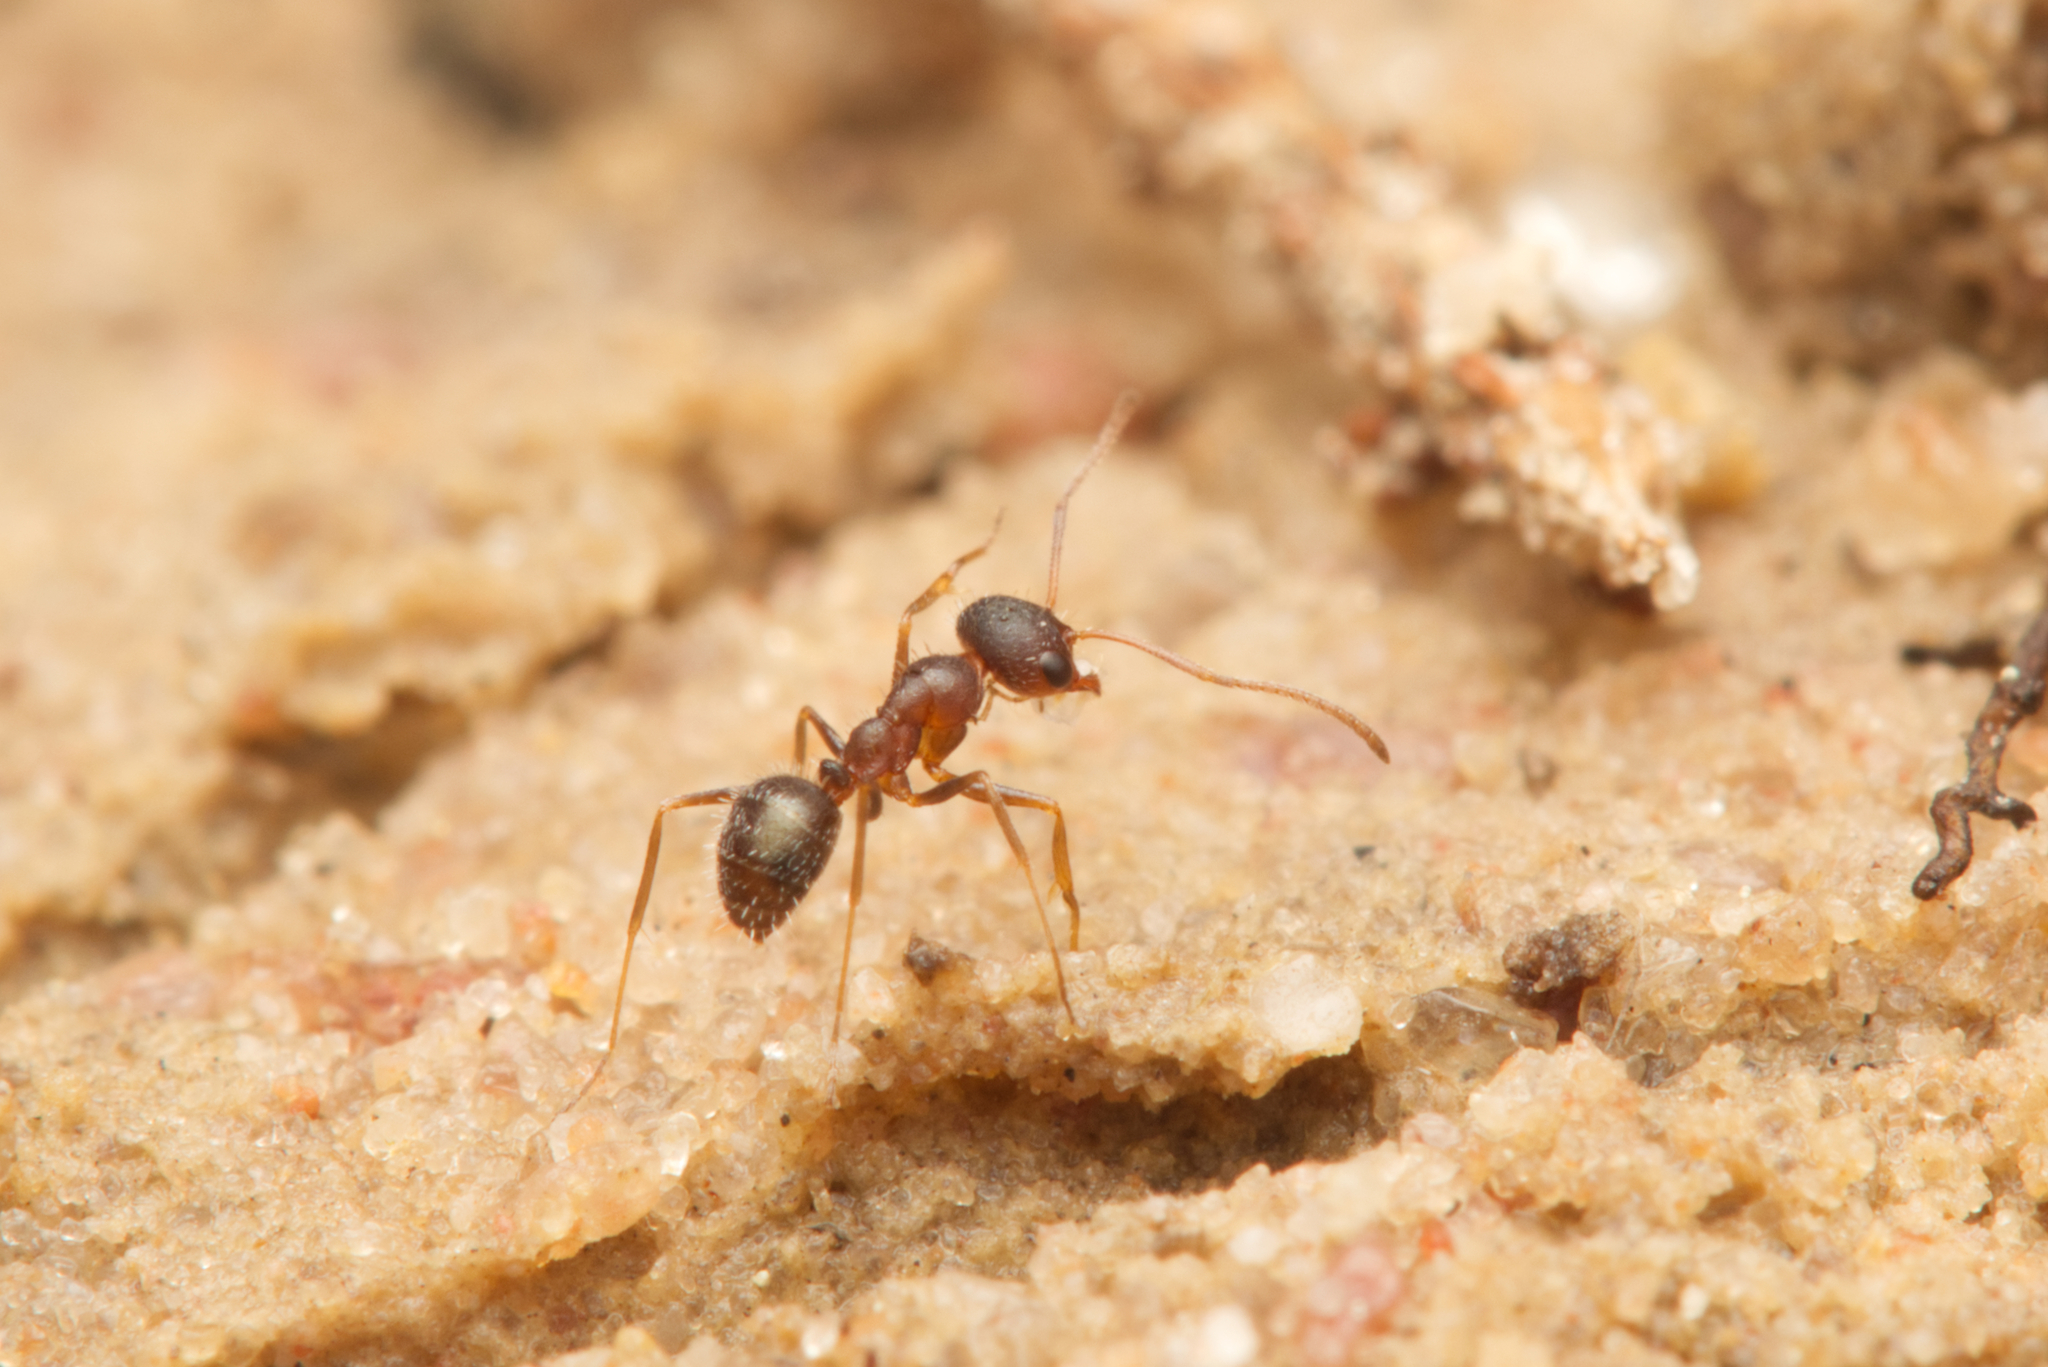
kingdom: Animalia
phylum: Arthropoda
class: Insecta
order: Hymenoptera
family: Formicidae
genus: Melophorus
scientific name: Melophorus bruneus
